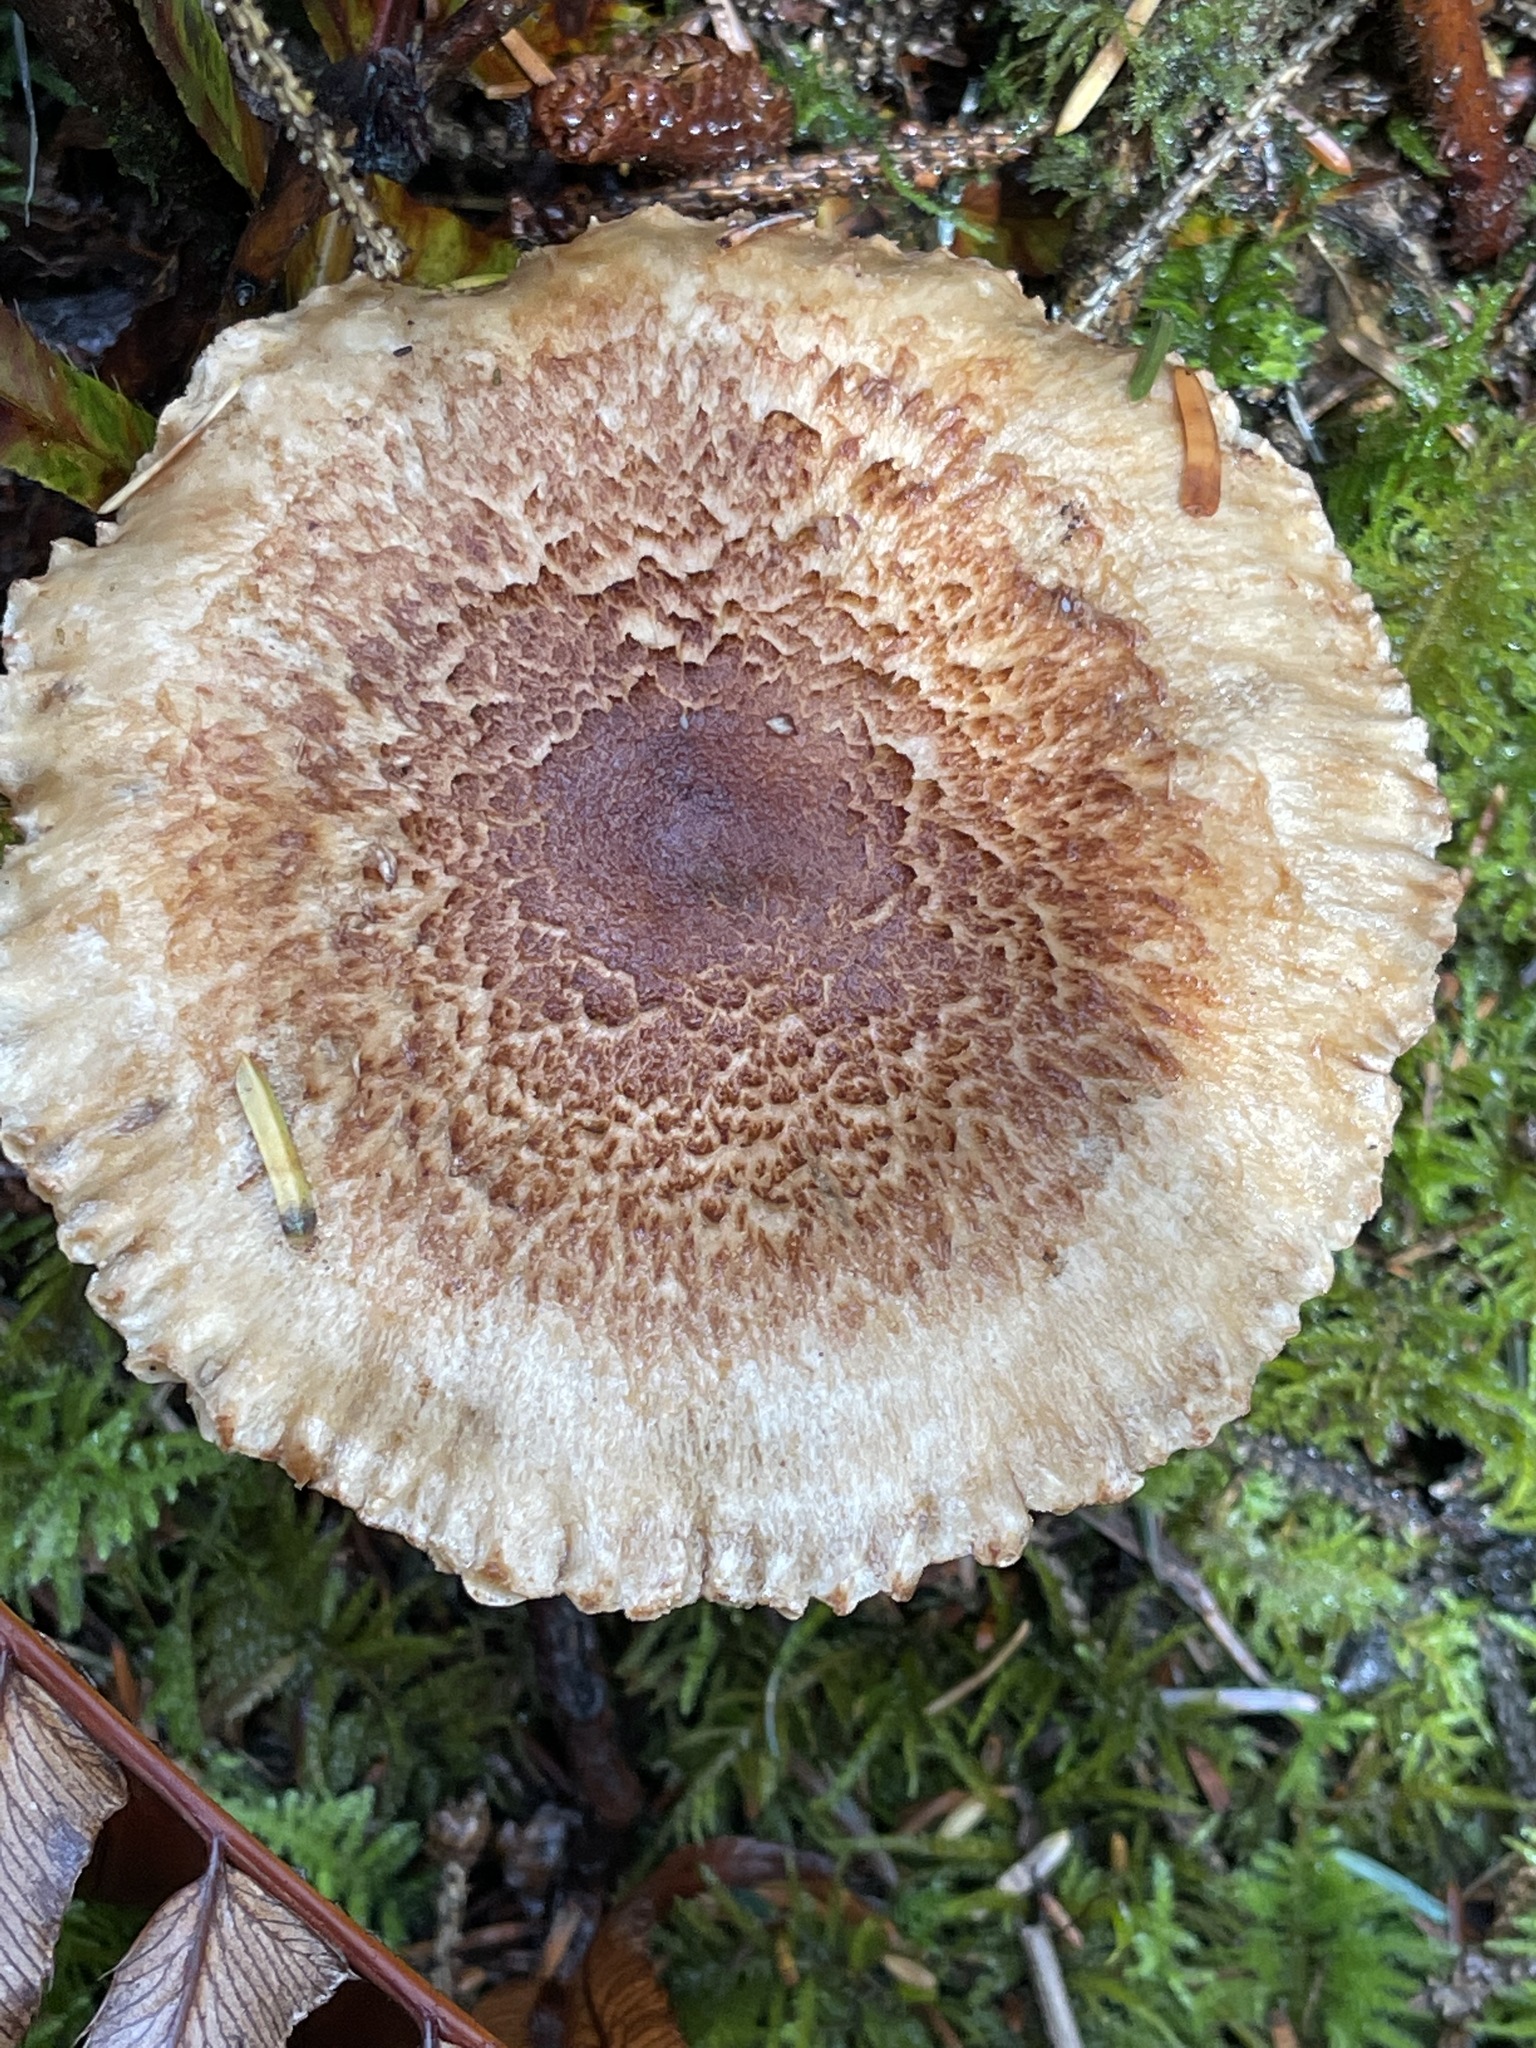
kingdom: Fungi
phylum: Basidiomycota
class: Agaricomycetes
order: Agaricales
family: Tricholomataceae
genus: Tricholoma
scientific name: Tricholoma vaccinum
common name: Scaly knight
